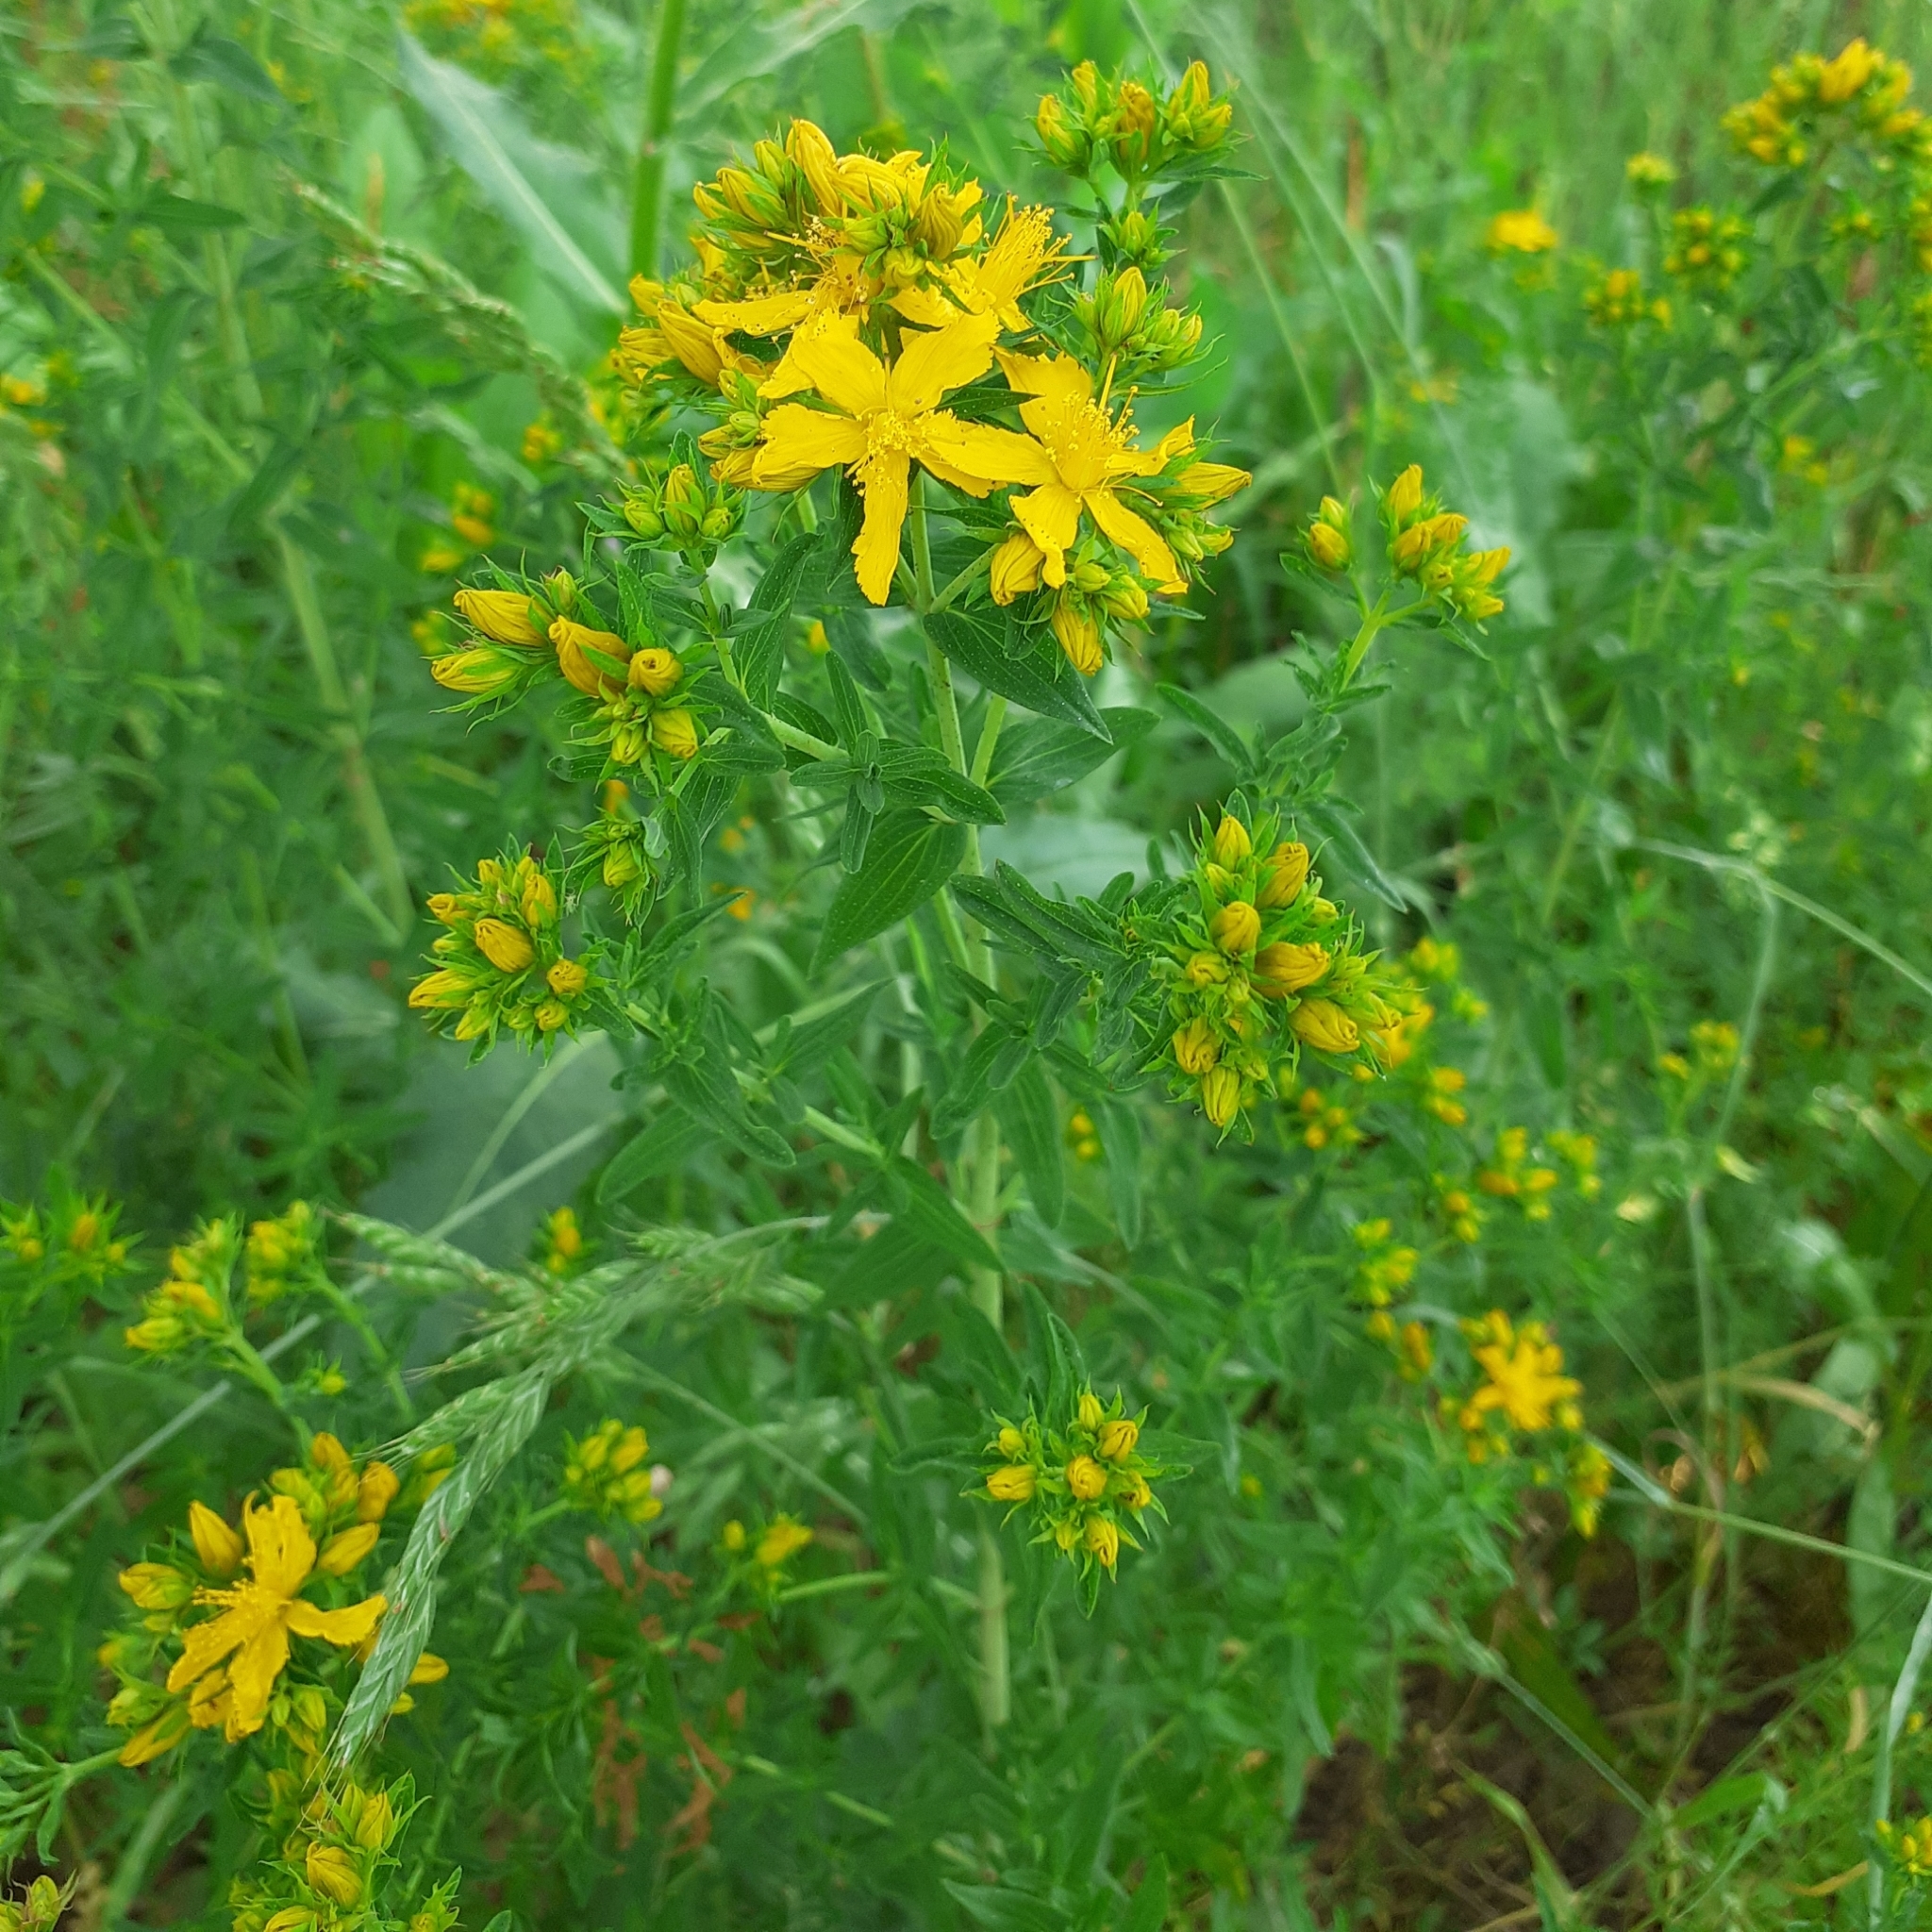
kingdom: Plantae
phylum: Tracheophyta
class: Magnoliopsida
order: Malpighiales
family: Hypericaceae
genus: Hypericum
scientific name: Hypericum perforatum
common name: Common st. johnswort
